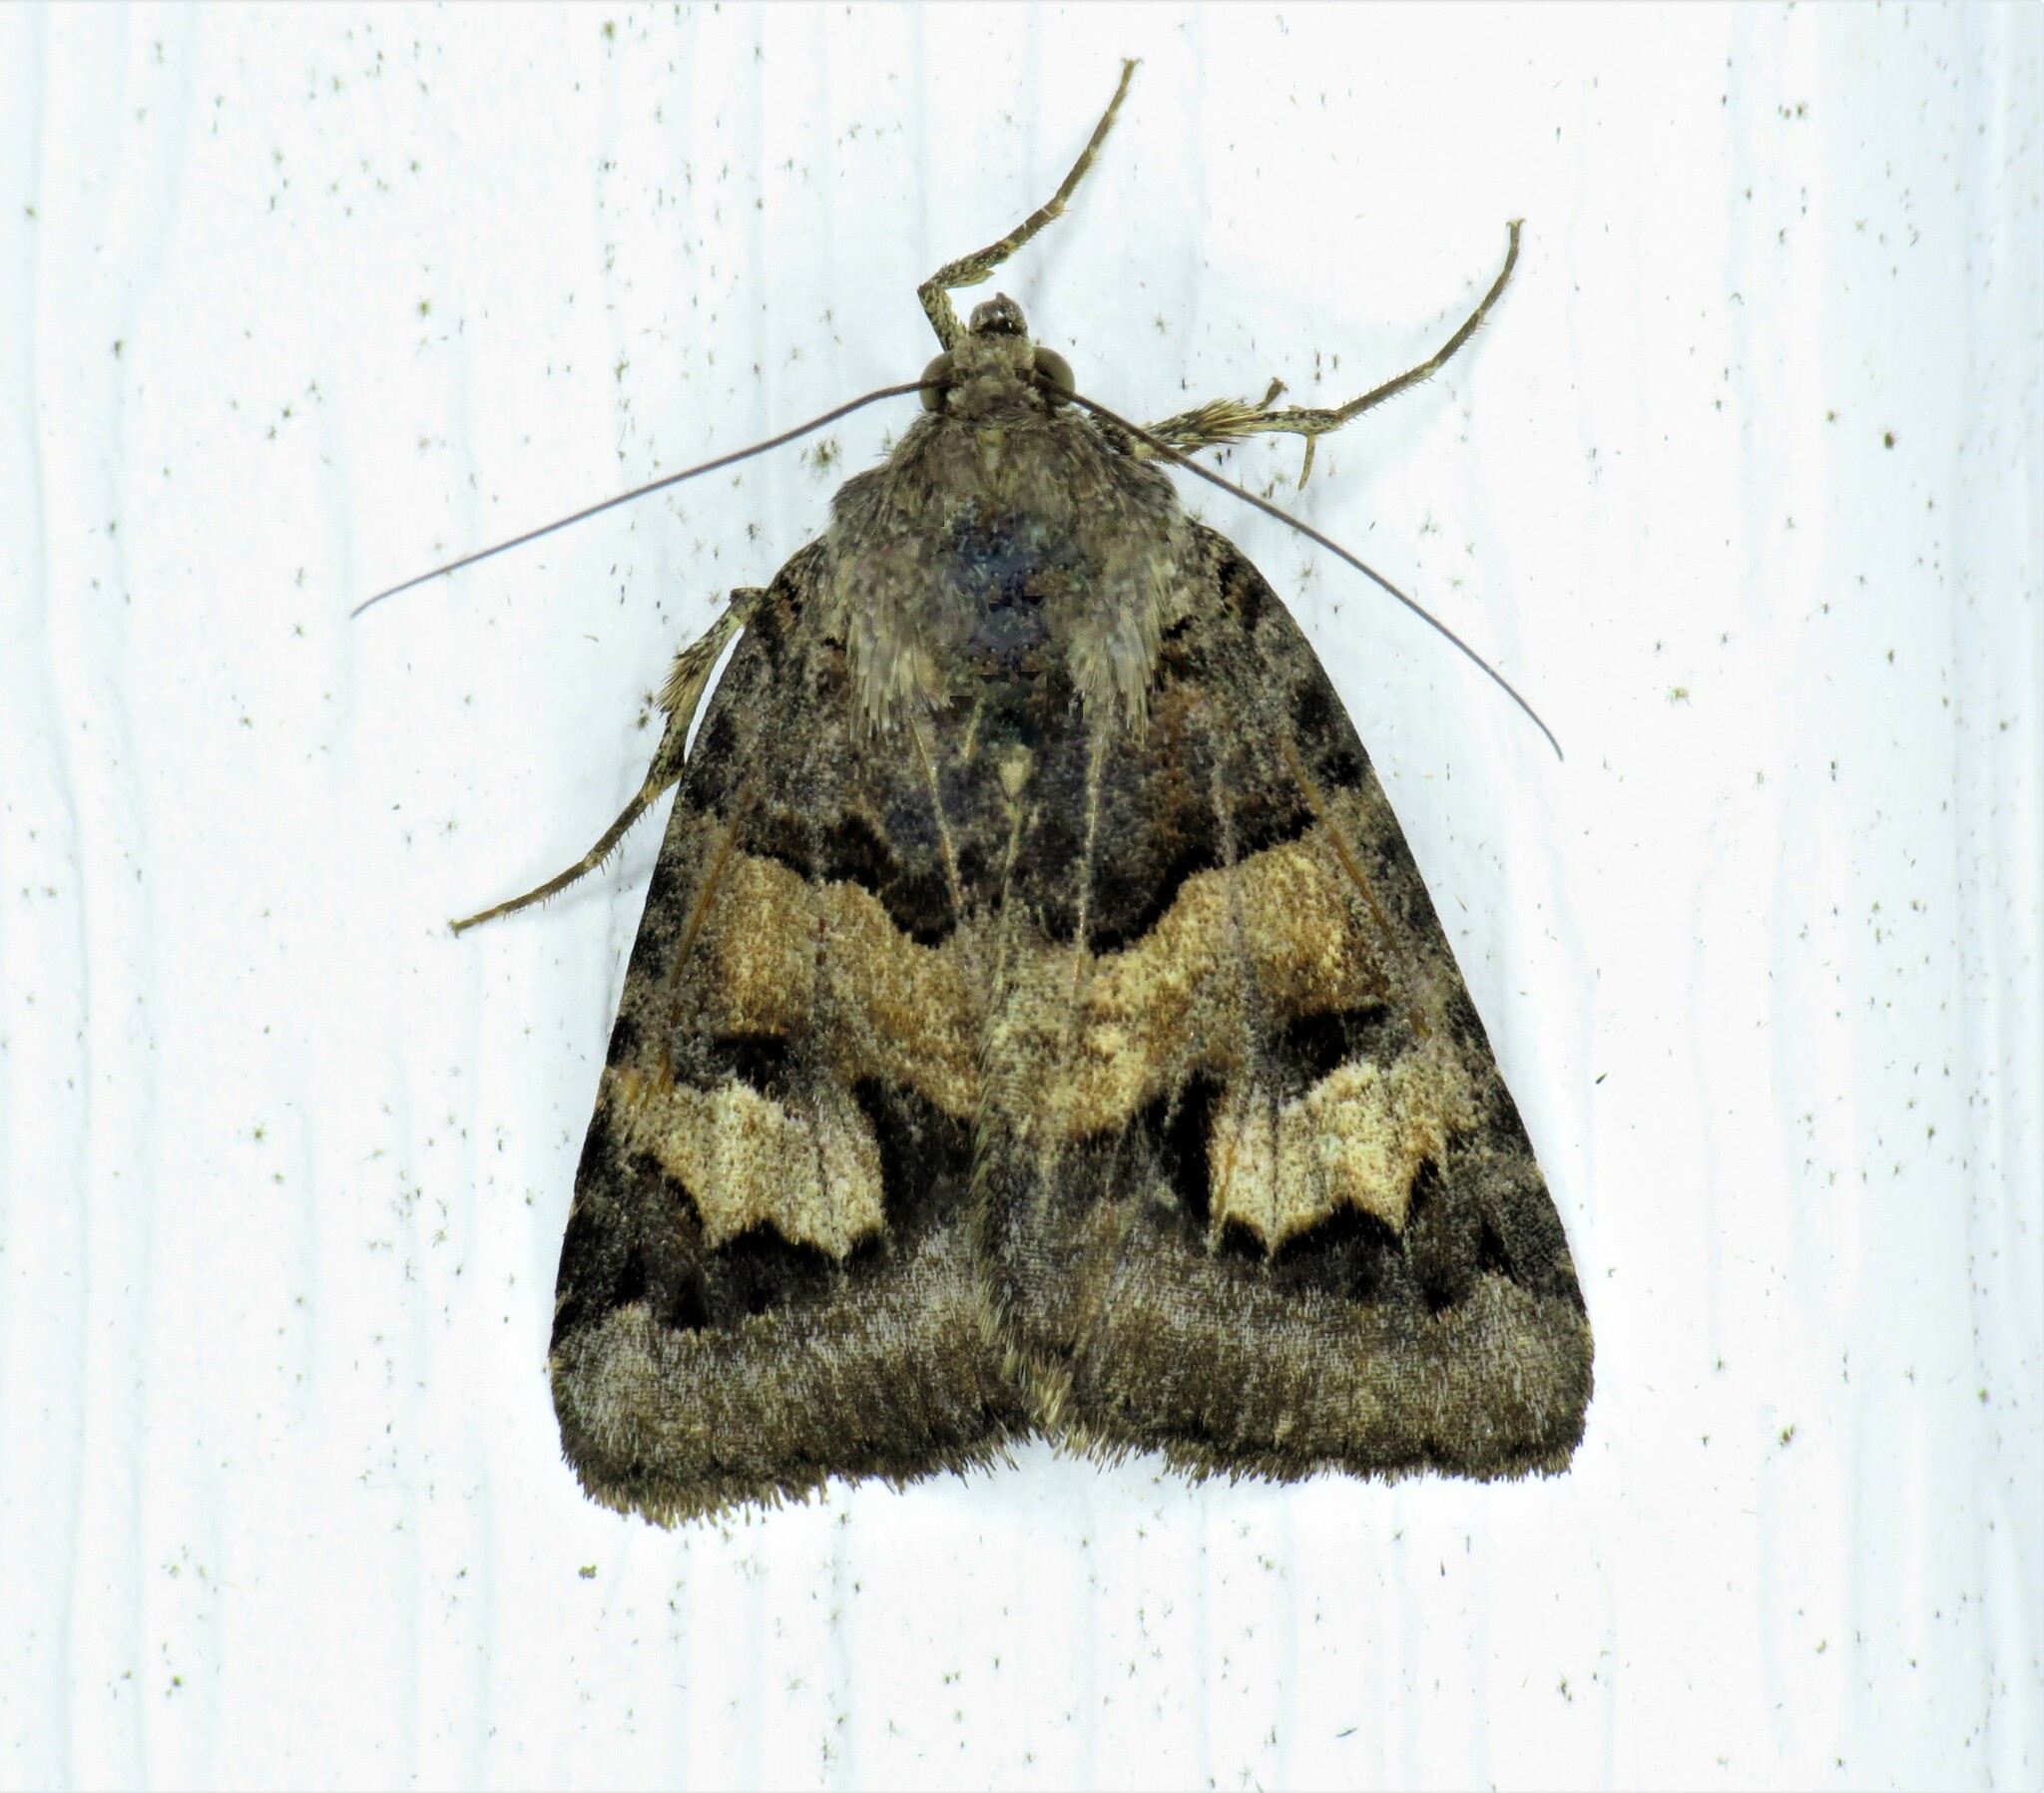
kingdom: Animalia
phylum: Arthropoda
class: Insecta
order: Lepidoptera
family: Erebidae
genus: Drasteria
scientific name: Drasteria adumbrata
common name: Shadowy arches
